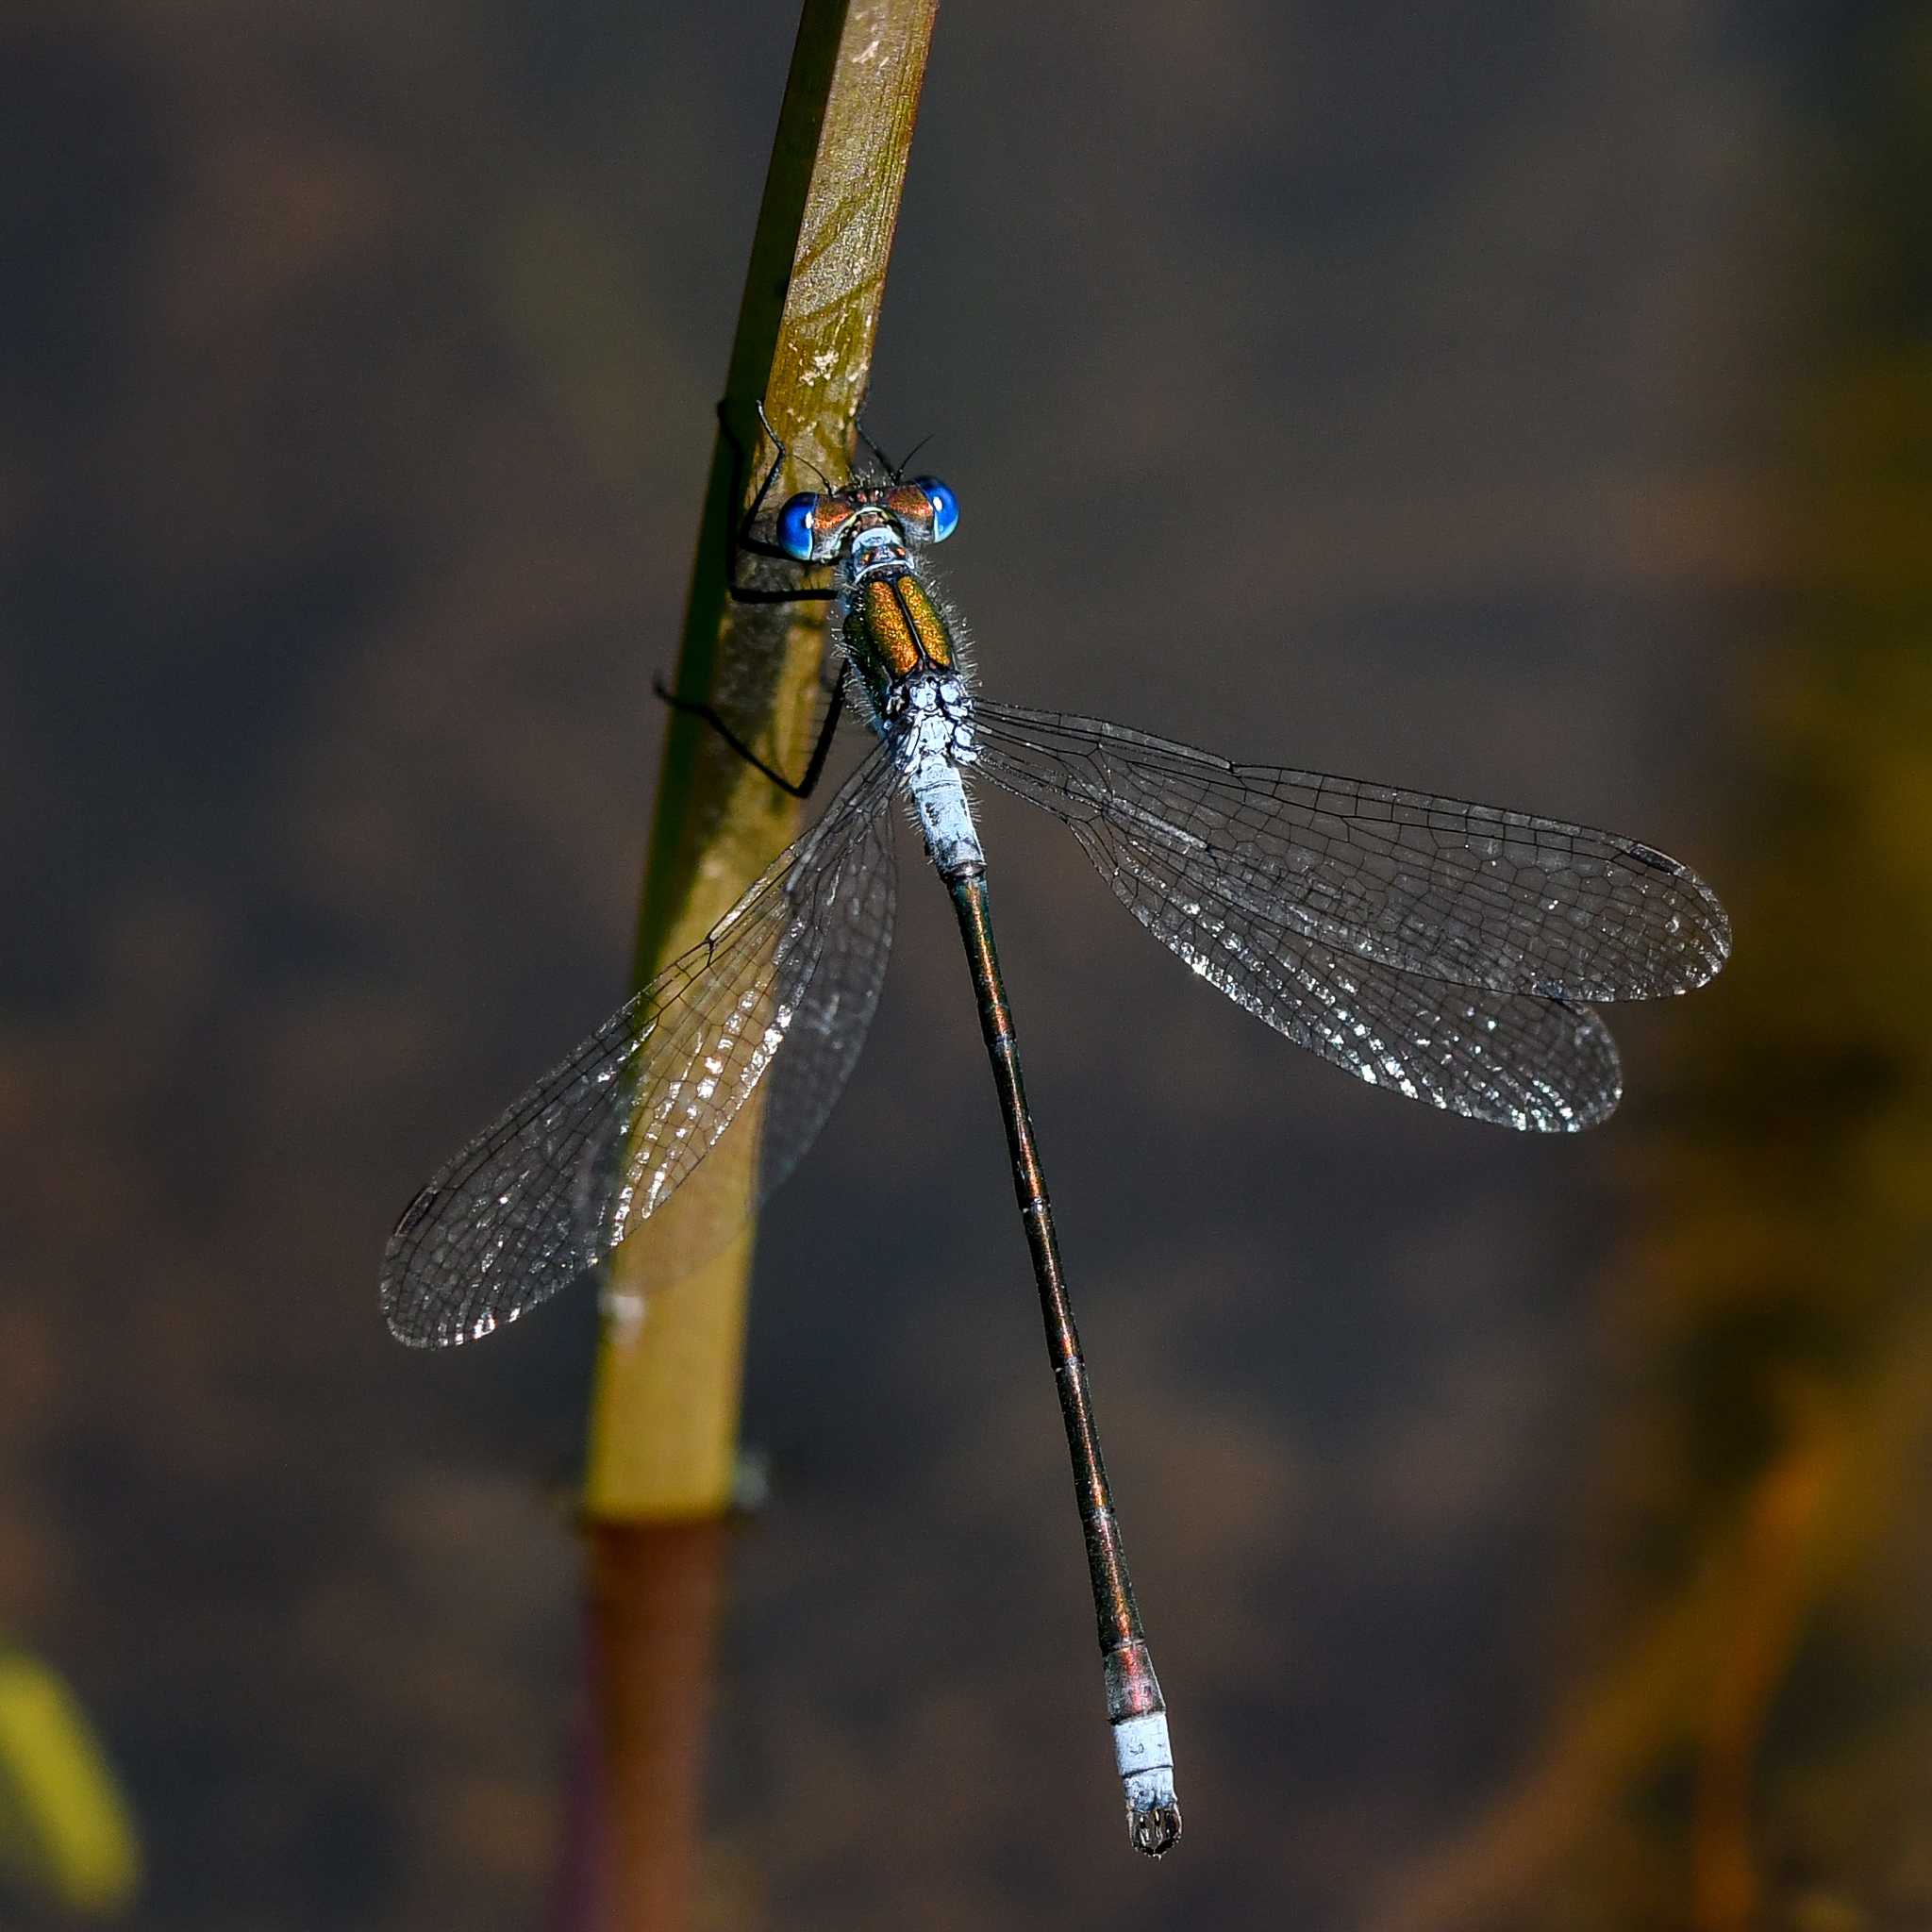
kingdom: Animalia
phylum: Arthropoda
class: Insecta
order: Odonata
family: Lestidae
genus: Lestes
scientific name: Lestes sponsa
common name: Common spreadwing
